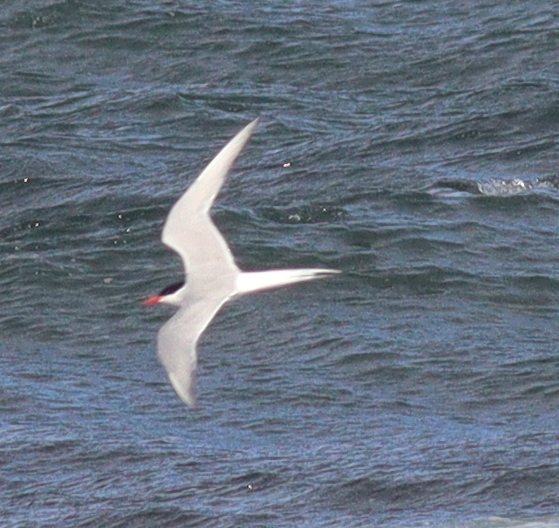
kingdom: Animalia
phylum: Chordata
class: Aves
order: Charadriiformes
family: Laridae
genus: Sterna
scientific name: Sterna paradisaea
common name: Arctic tern
